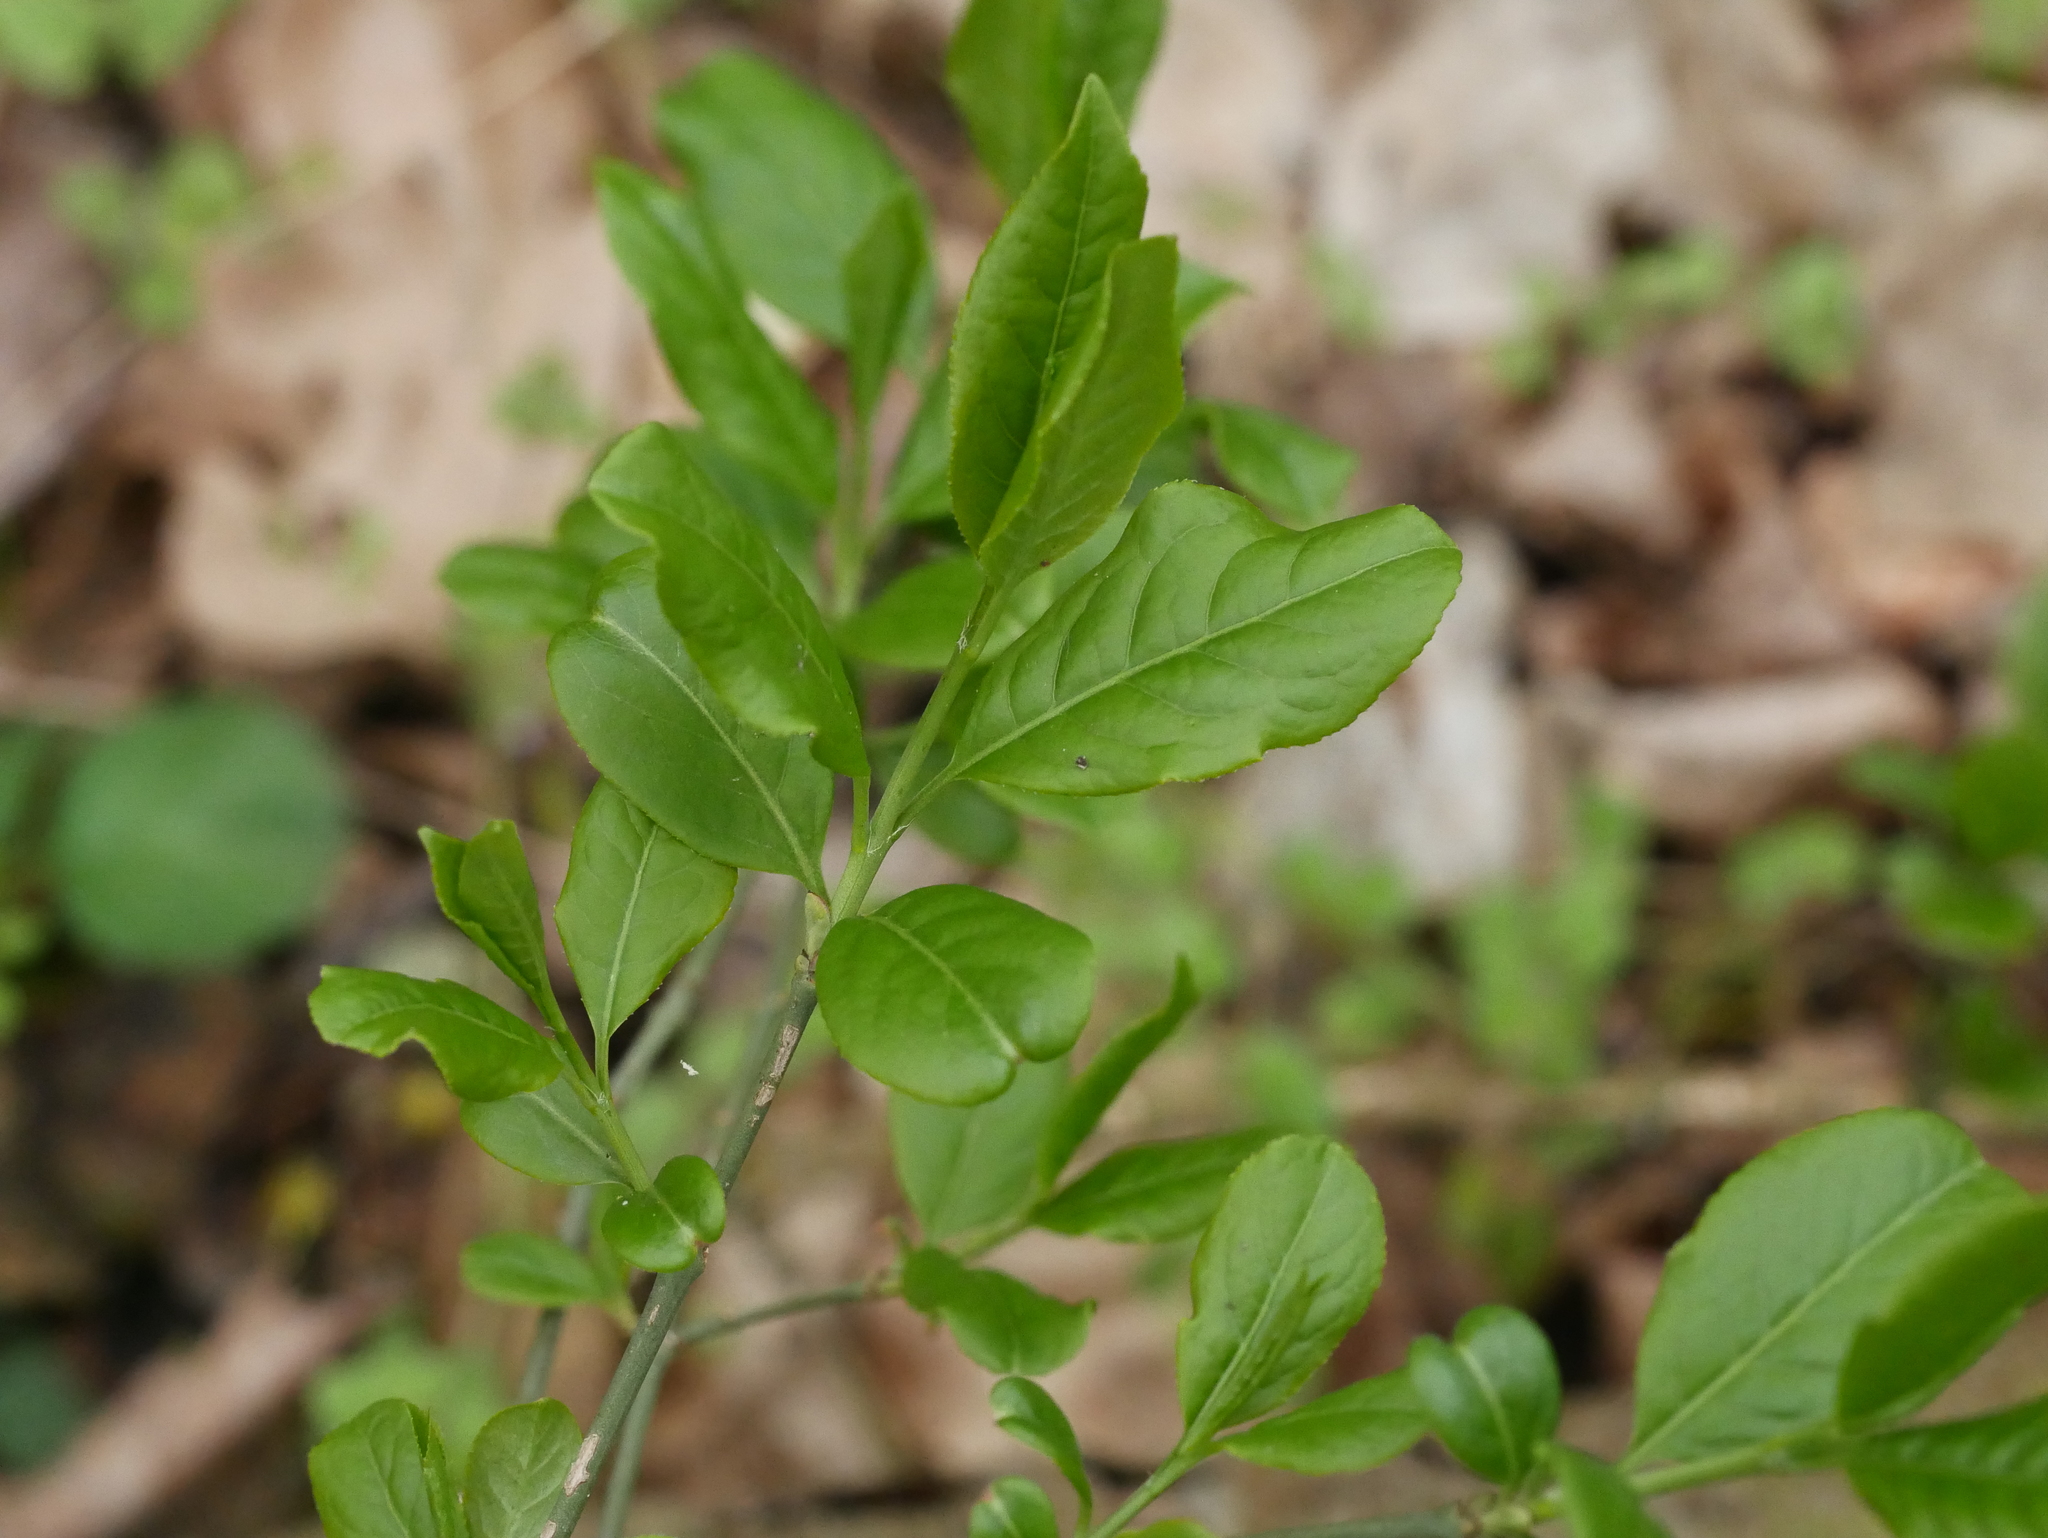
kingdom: Plantae
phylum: Tracheophyta
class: Magnoliopsida
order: Celastrales
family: Celastraceae
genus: Euonymus
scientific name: Euonymus europaeus
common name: Spindle
